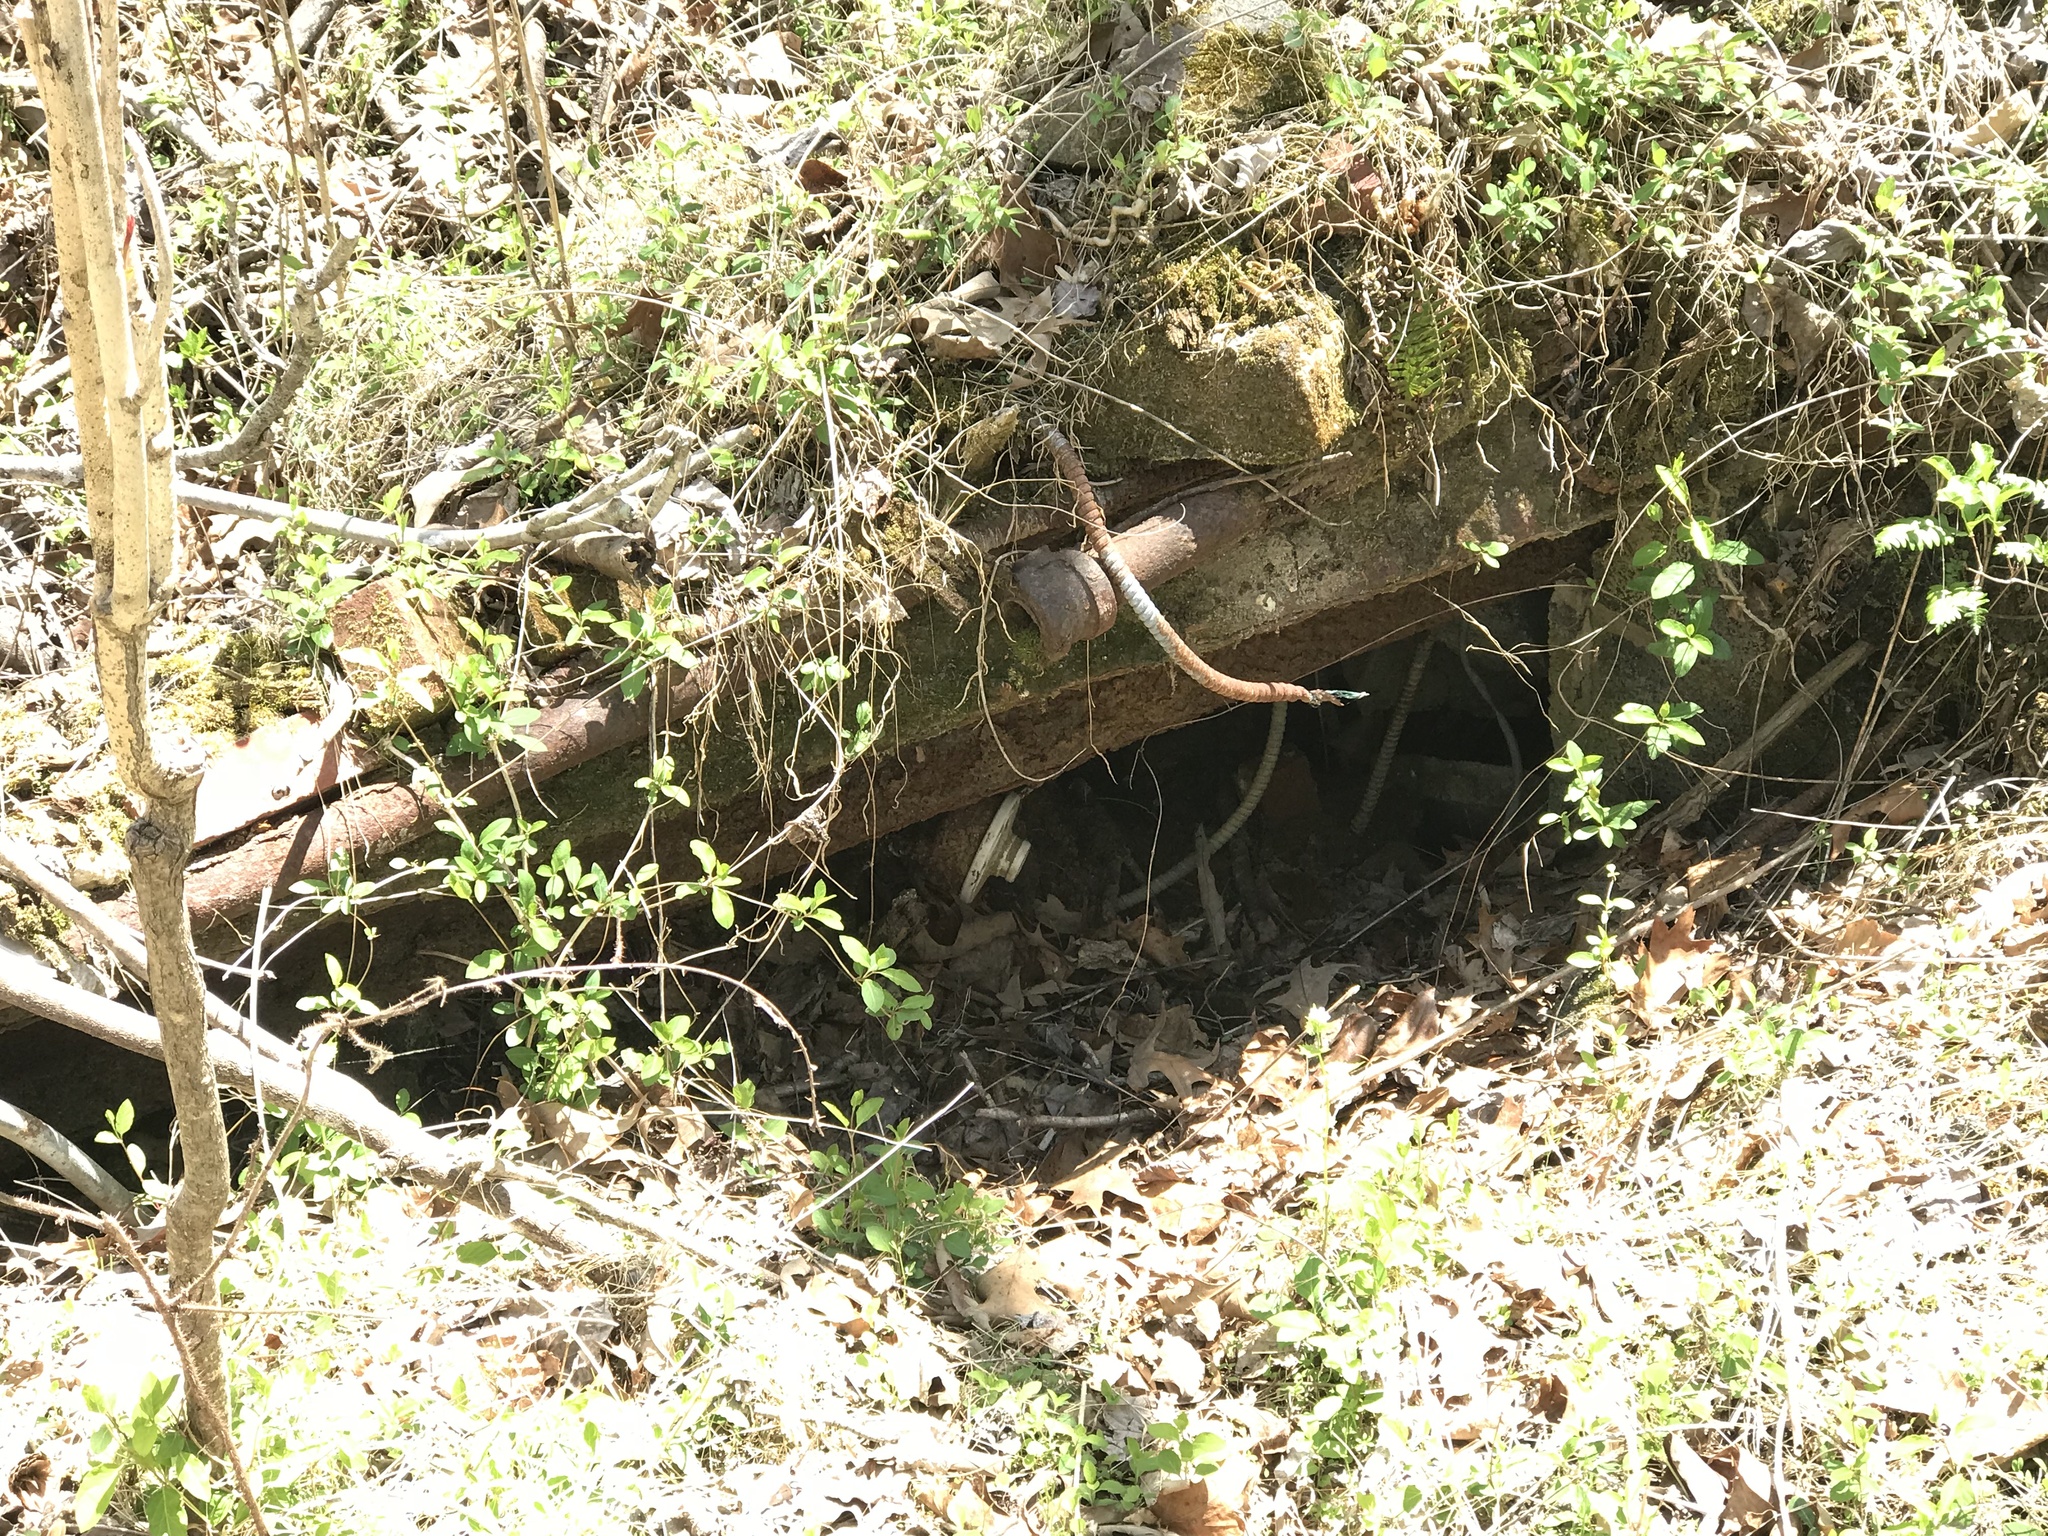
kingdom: Plantae
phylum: Tracheophyta
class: Polypodiopsida
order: Polypodiales
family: Dryopteridaceae
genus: Polystichum
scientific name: Polystichum acrostichoides
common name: Christmas fern
